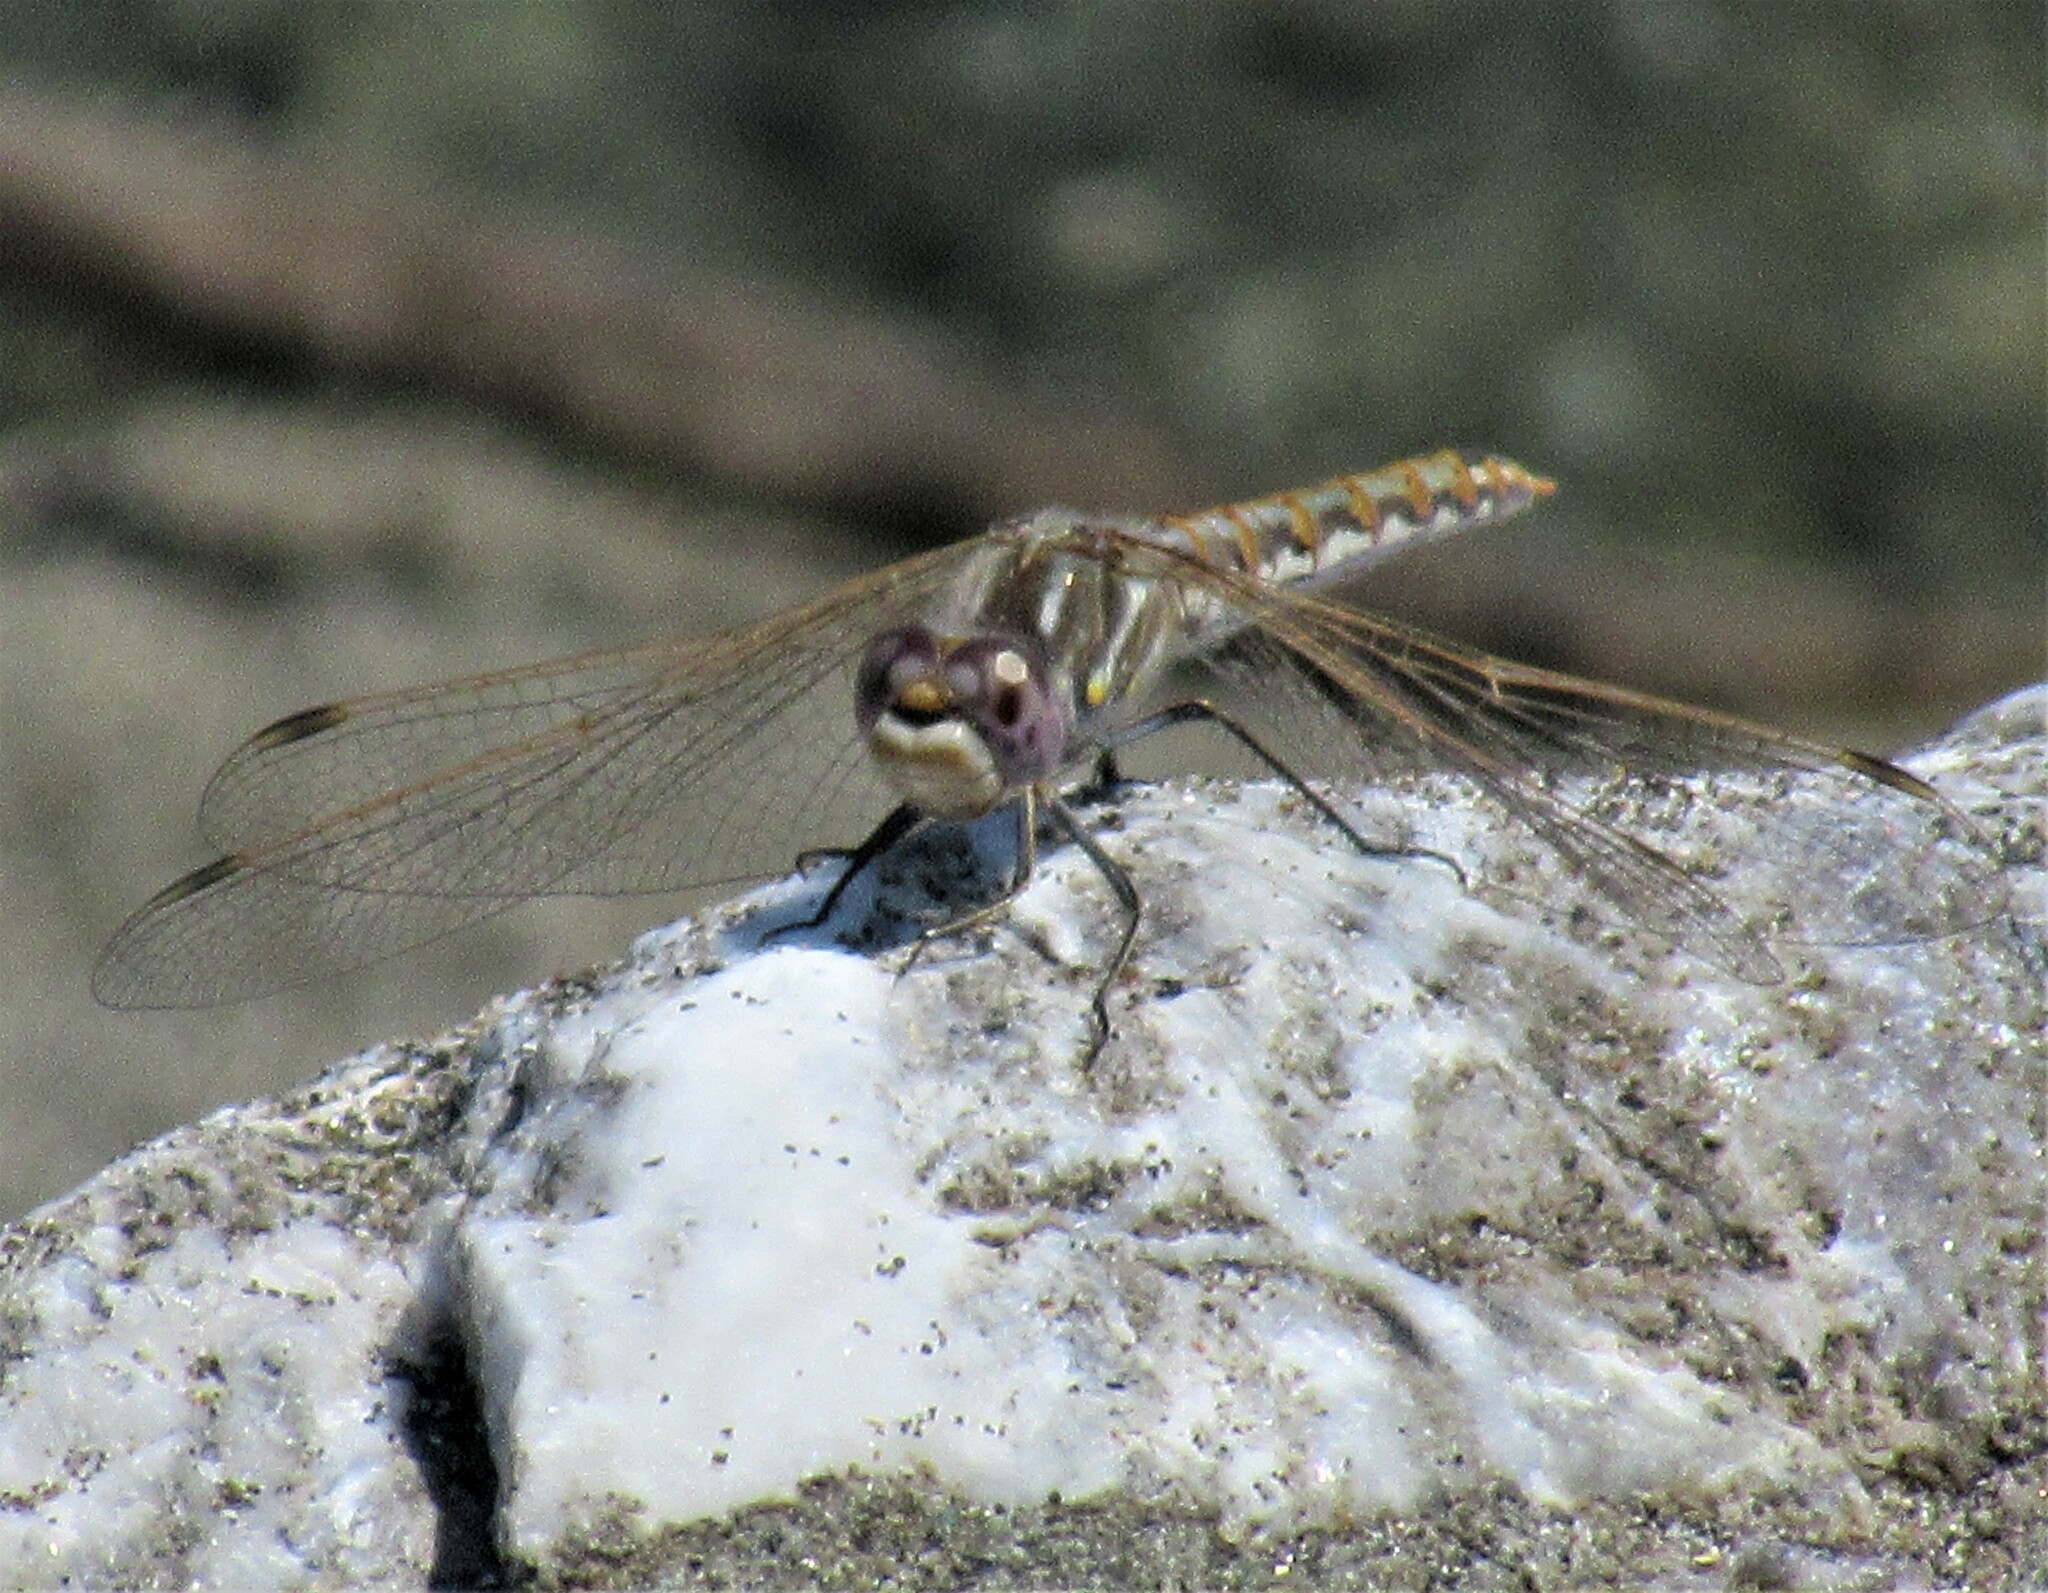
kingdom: Animalia
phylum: Arthropoda
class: Insecta
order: Odonata
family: Libellulidae
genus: Sympetrum
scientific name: Sympetrum corruptum
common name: Variegated meadowhawk
